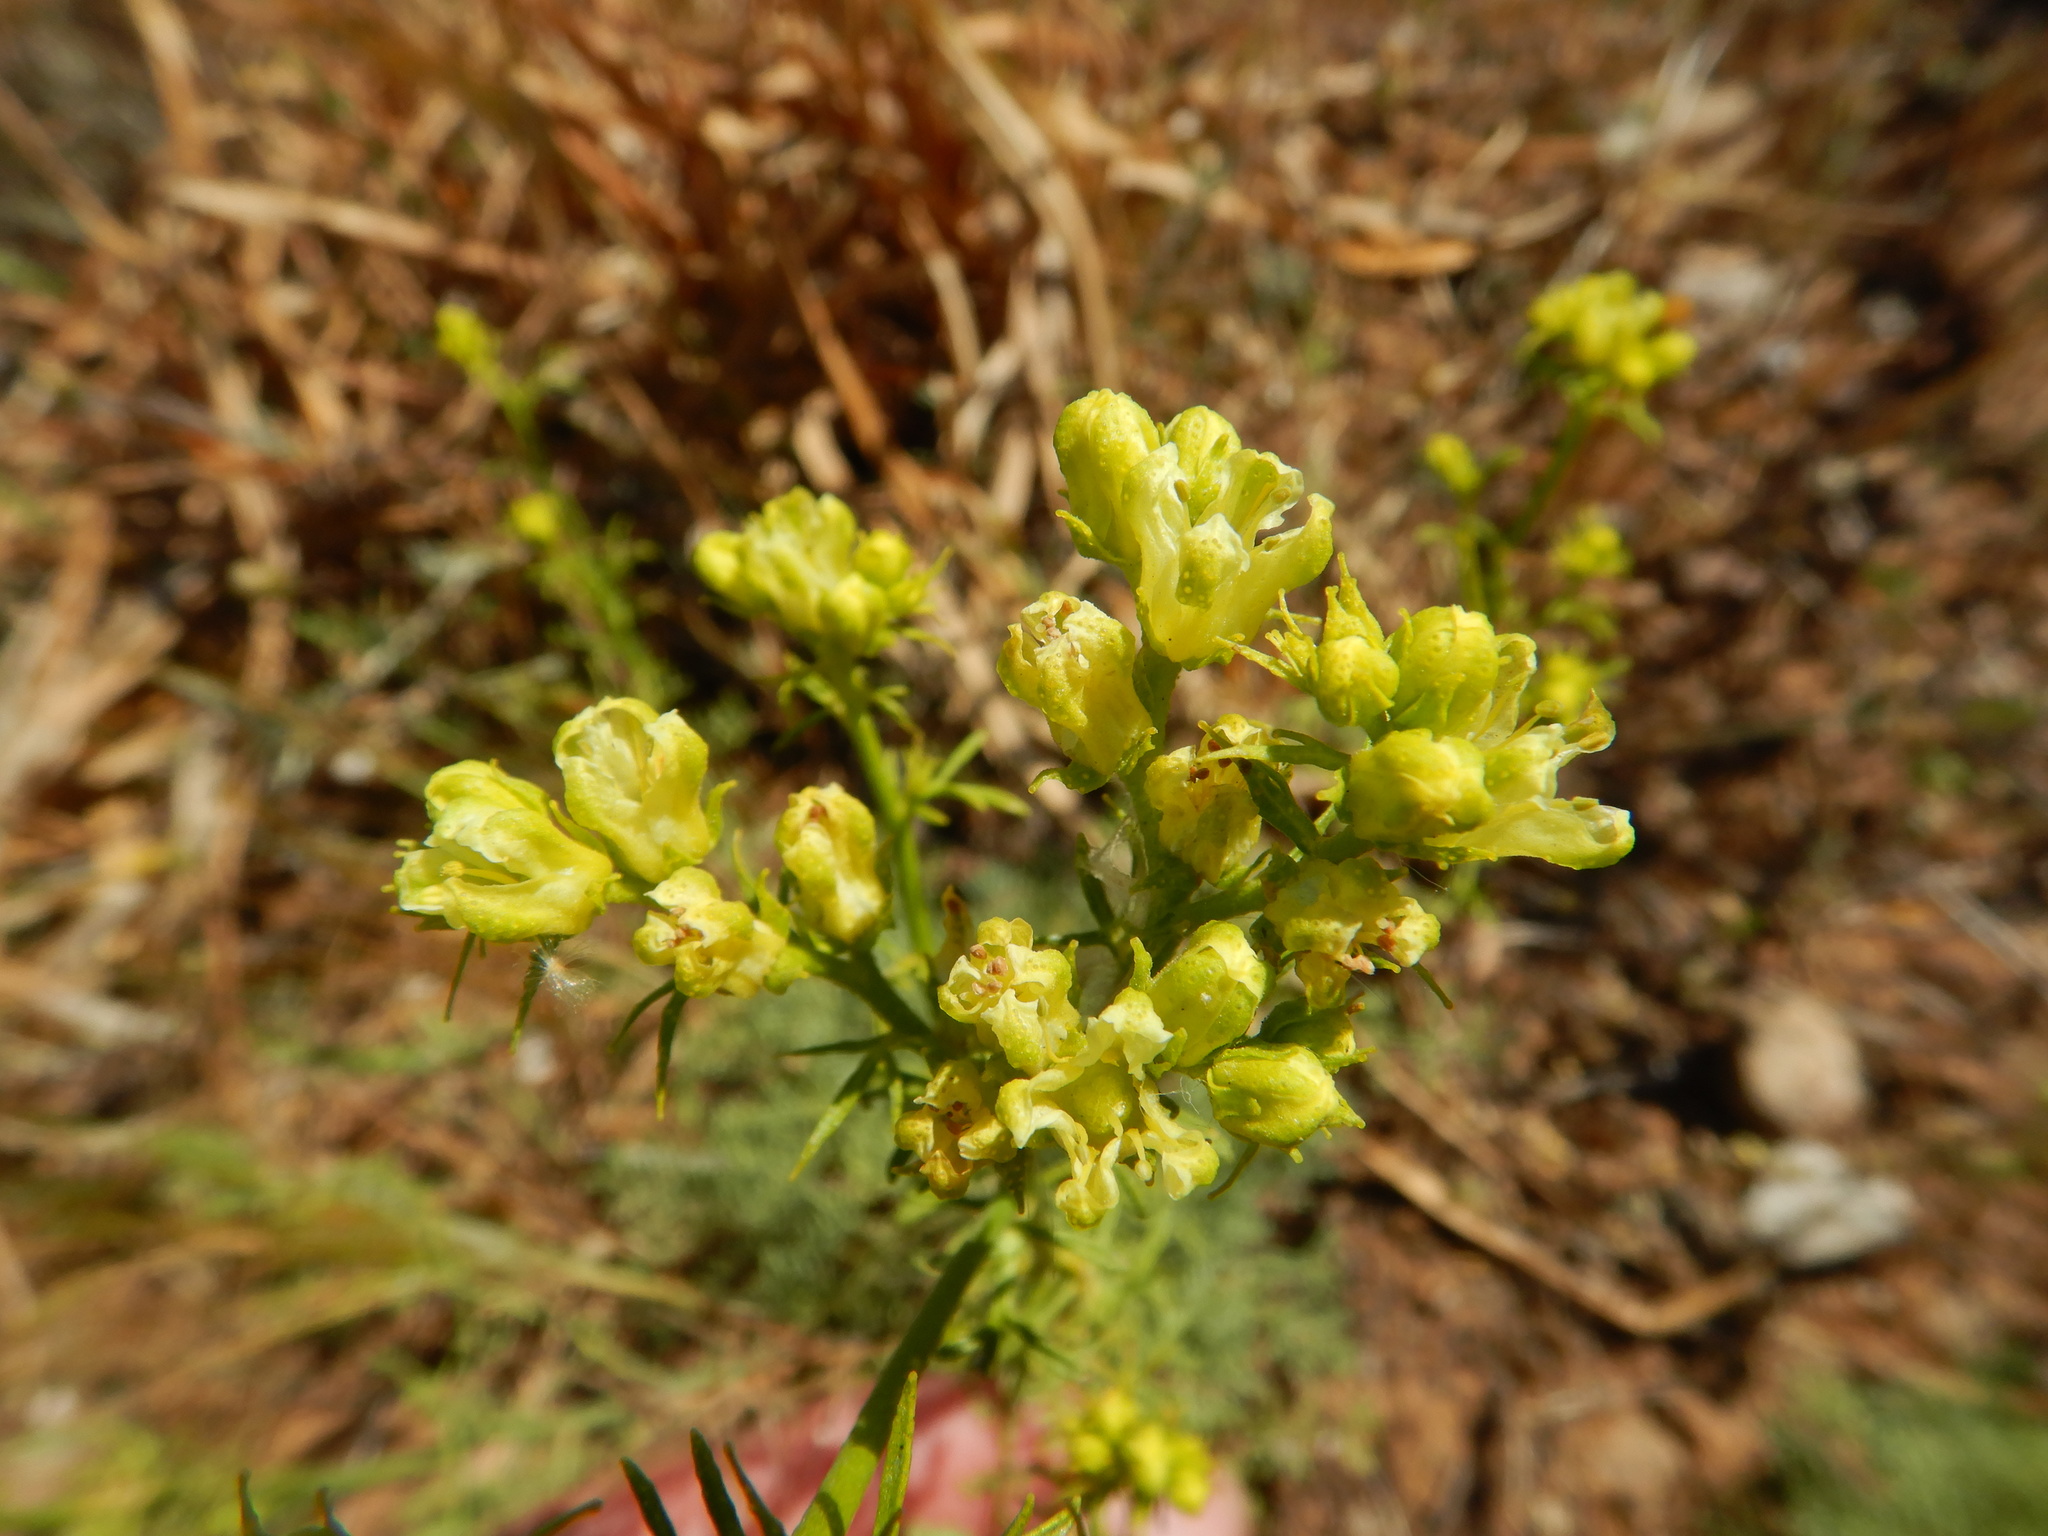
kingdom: Plantae
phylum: Tracheophyta
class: Magnoliopsida
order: Sapindales
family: Rutaceae
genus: Ruta
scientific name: Ruta montana
